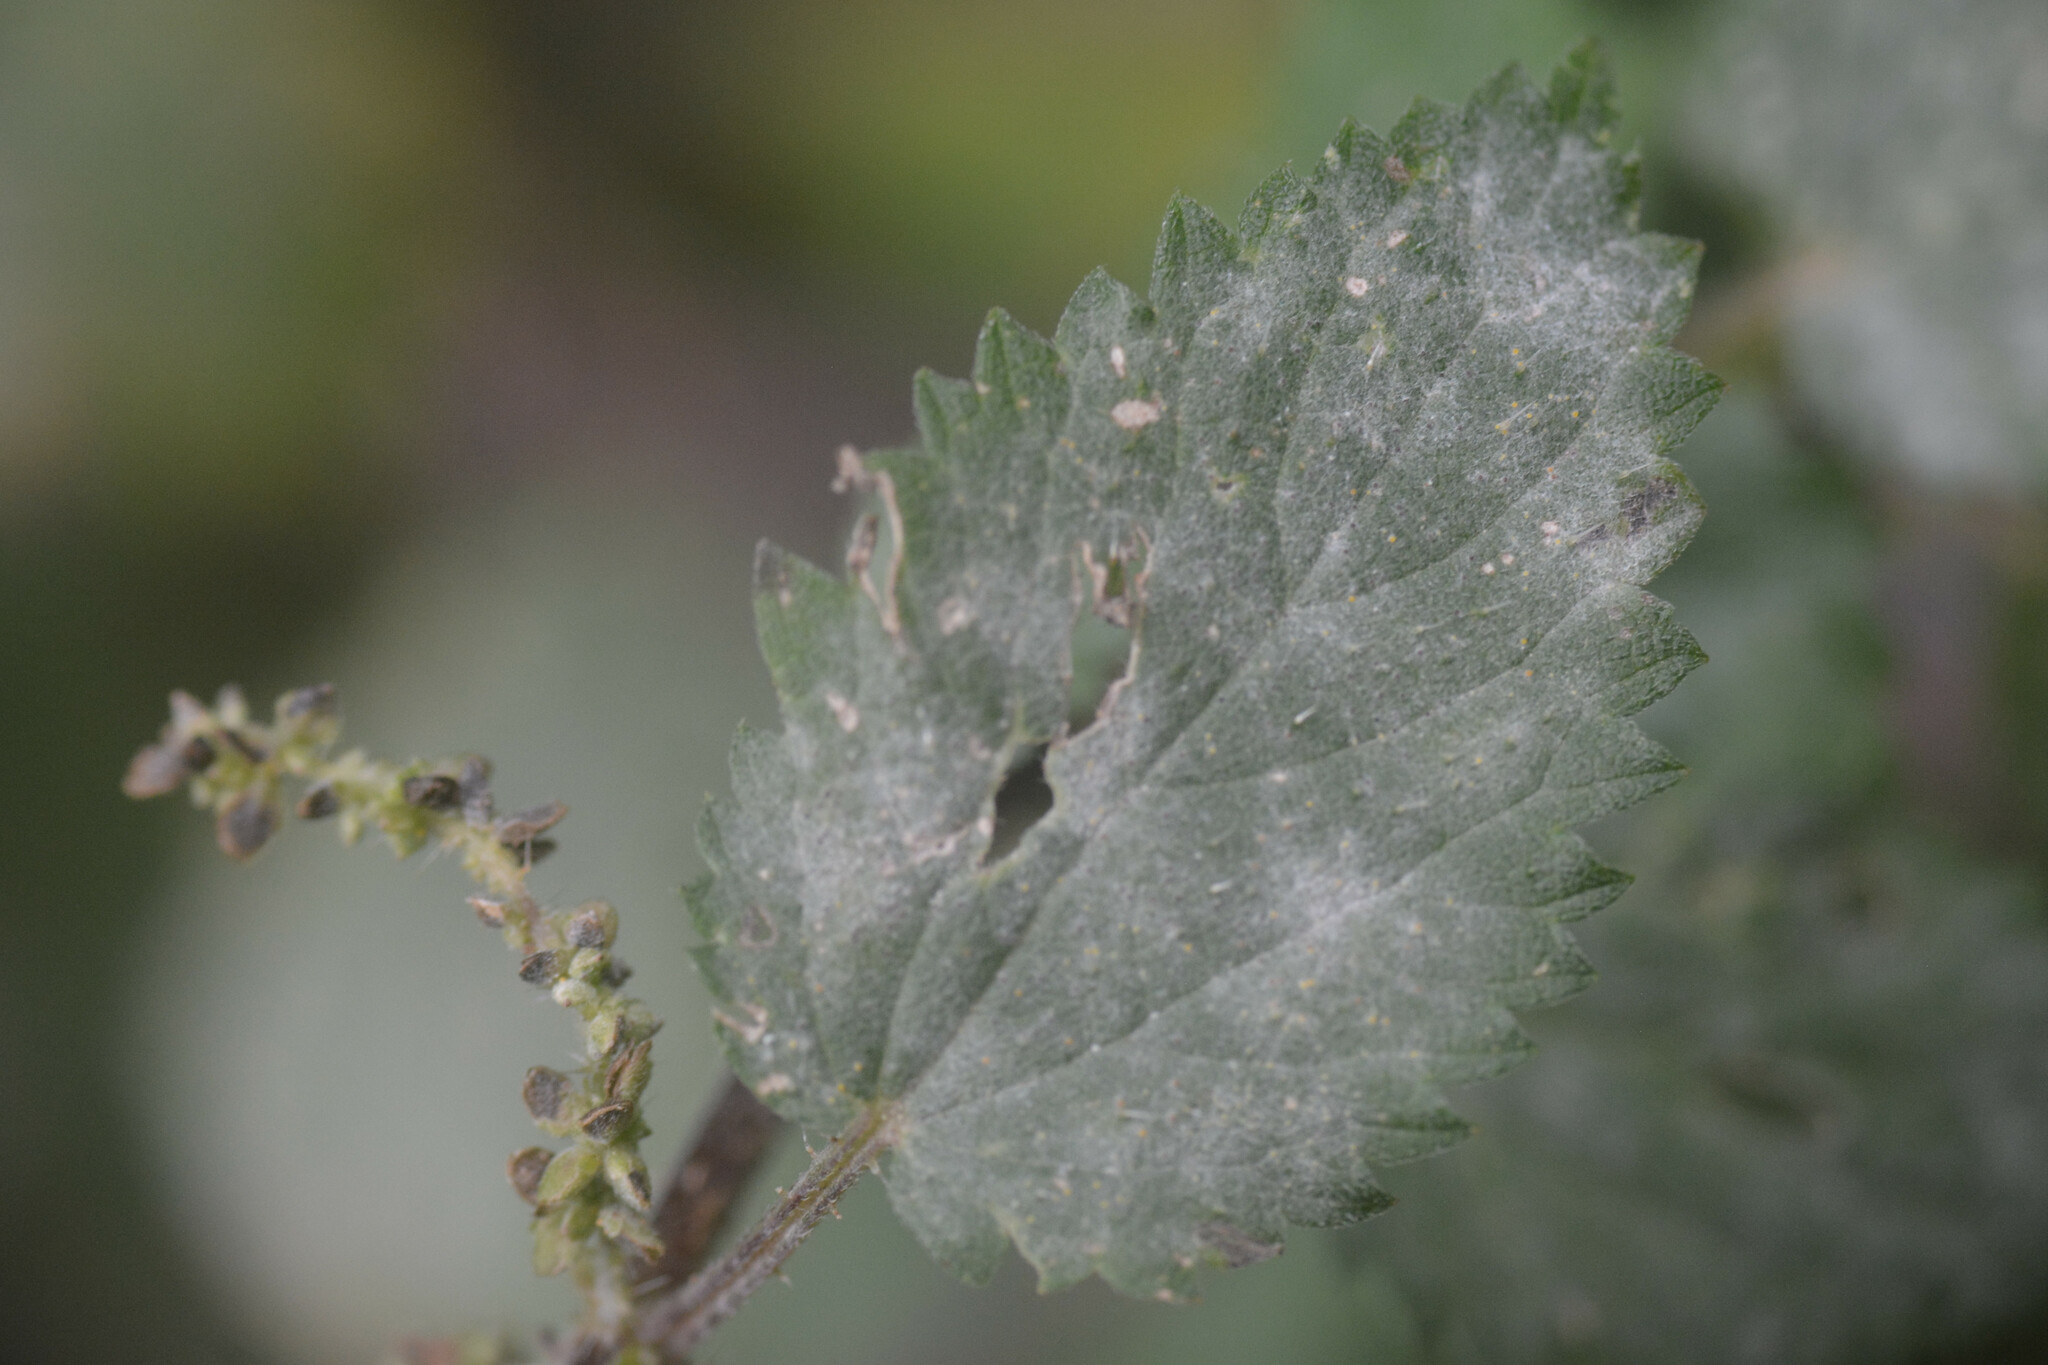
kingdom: Fungi
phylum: Ascomycota
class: Leotiomycetes
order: Helotiales
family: Erysiphaceae
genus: Erysiphe
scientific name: Erysiphe urticae
